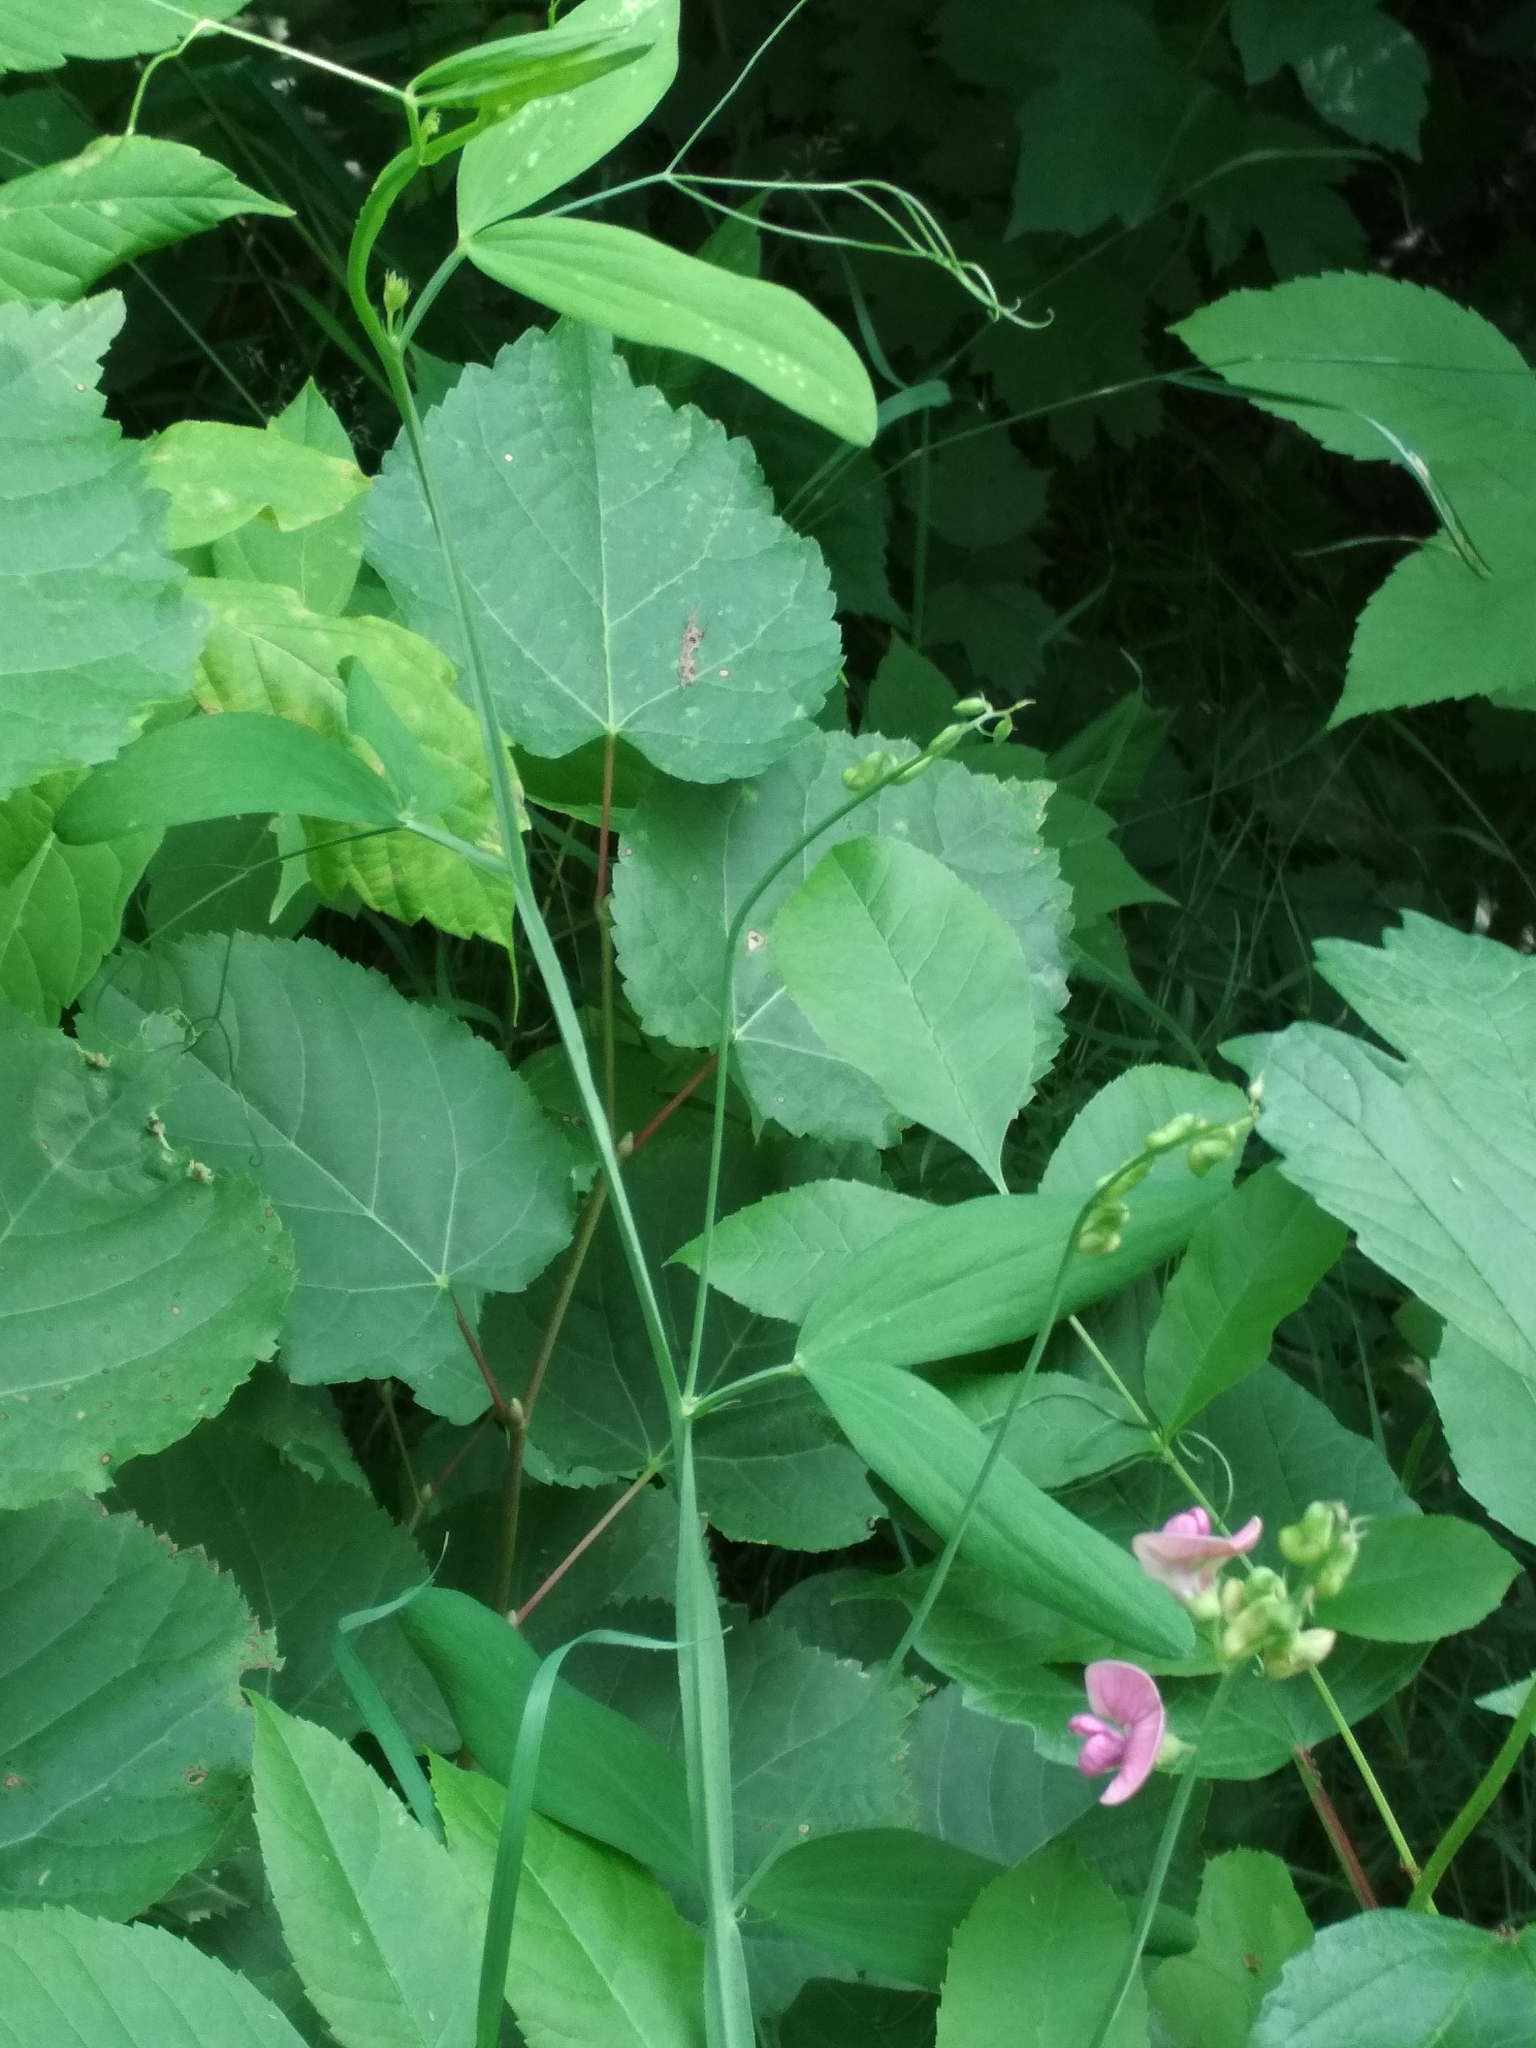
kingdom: Plantae
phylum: Tracheophyta
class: Magnoliopsida
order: Fabales
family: Fabaceae
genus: Lathyrus
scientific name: Lathyrus sylvestris
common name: Flat pea
